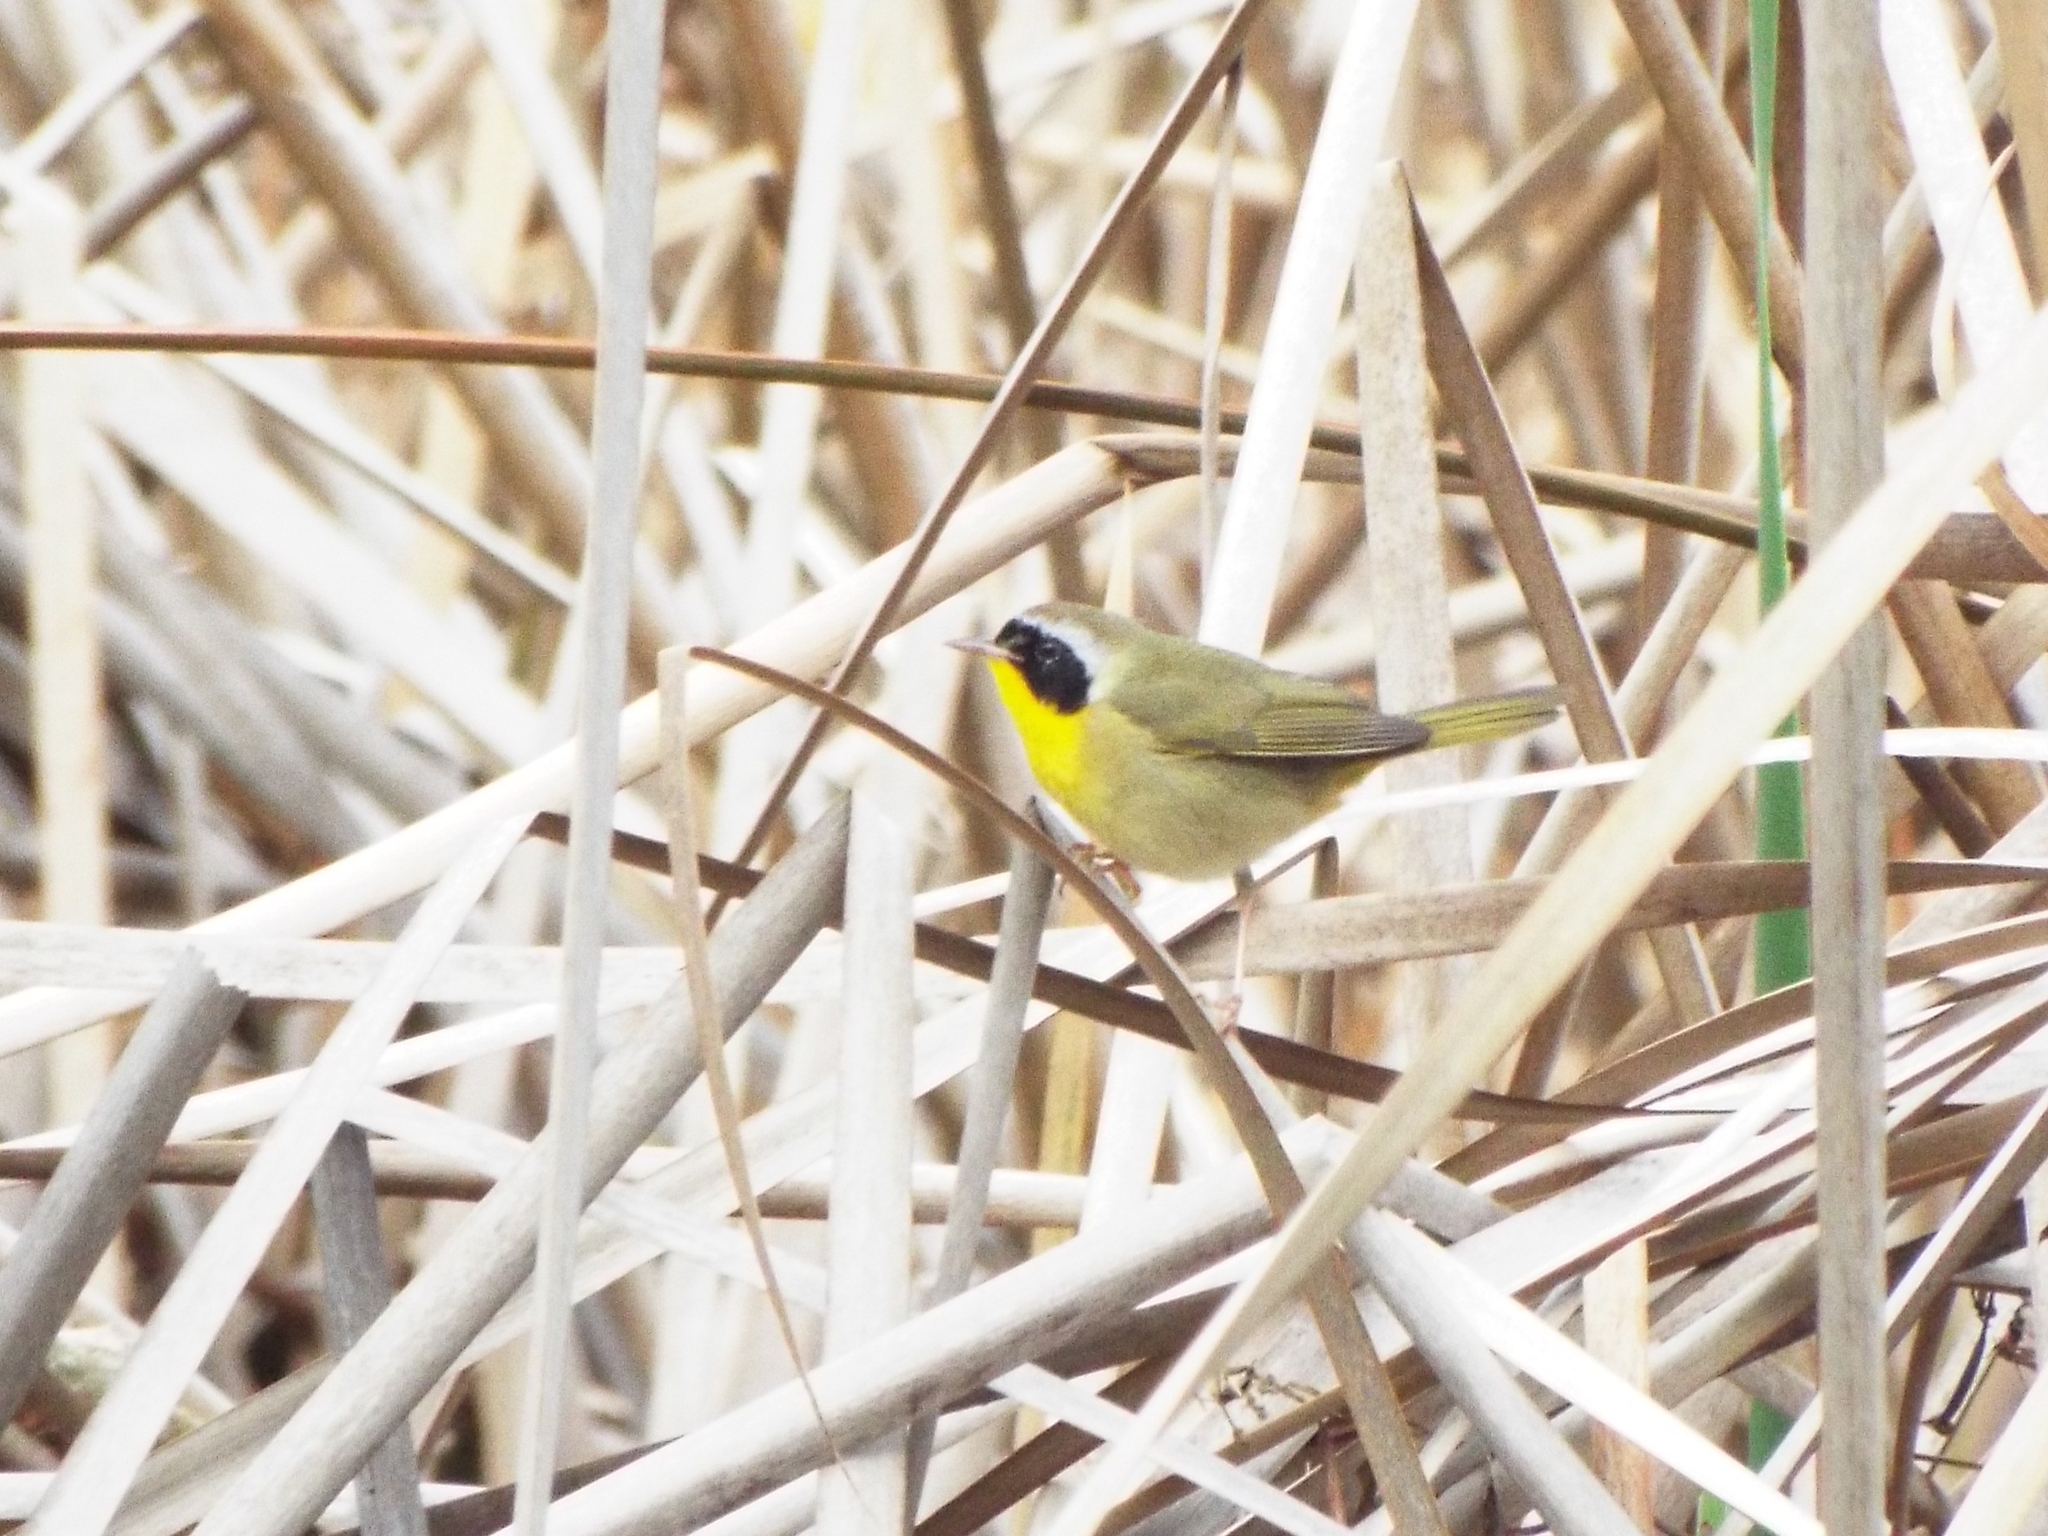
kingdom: Animalia
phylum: Chordata
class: Aves
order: Passeriformes
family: Parulidae
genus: Geothlypis
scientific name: Geothlypis trichas
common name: Common yellowthroat
